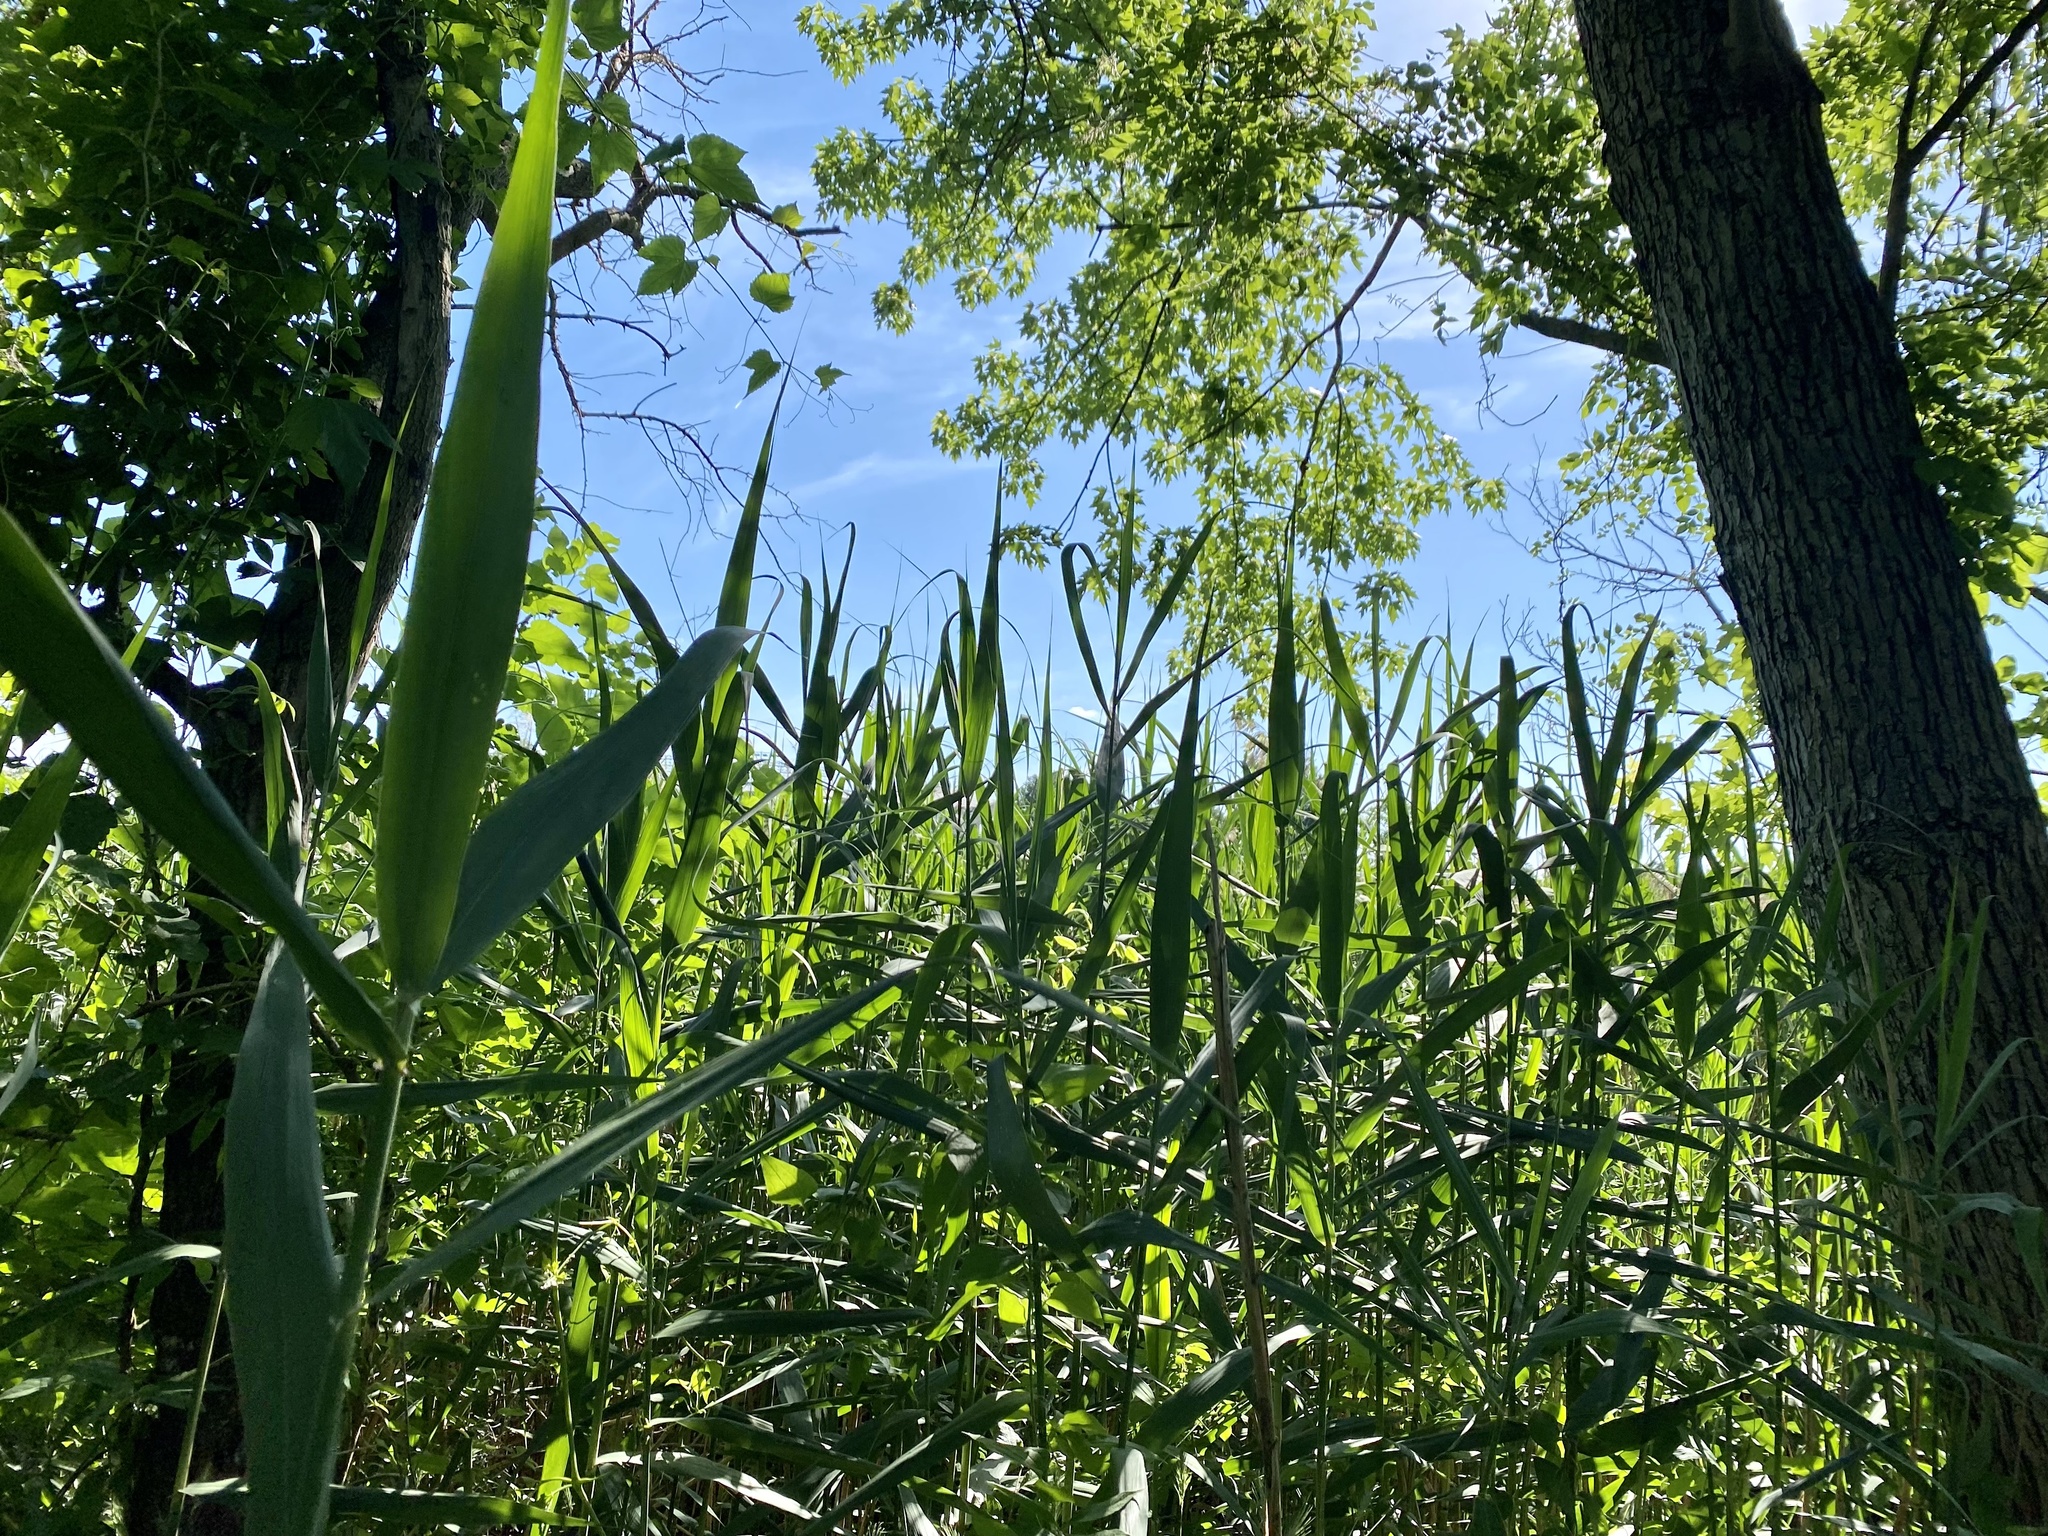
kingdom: Plantae
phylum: Tracheophyta
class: Liliopsida
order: Poales
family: Poaceae
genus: Phragmites
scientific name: Phragmites australis
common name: Common reed
